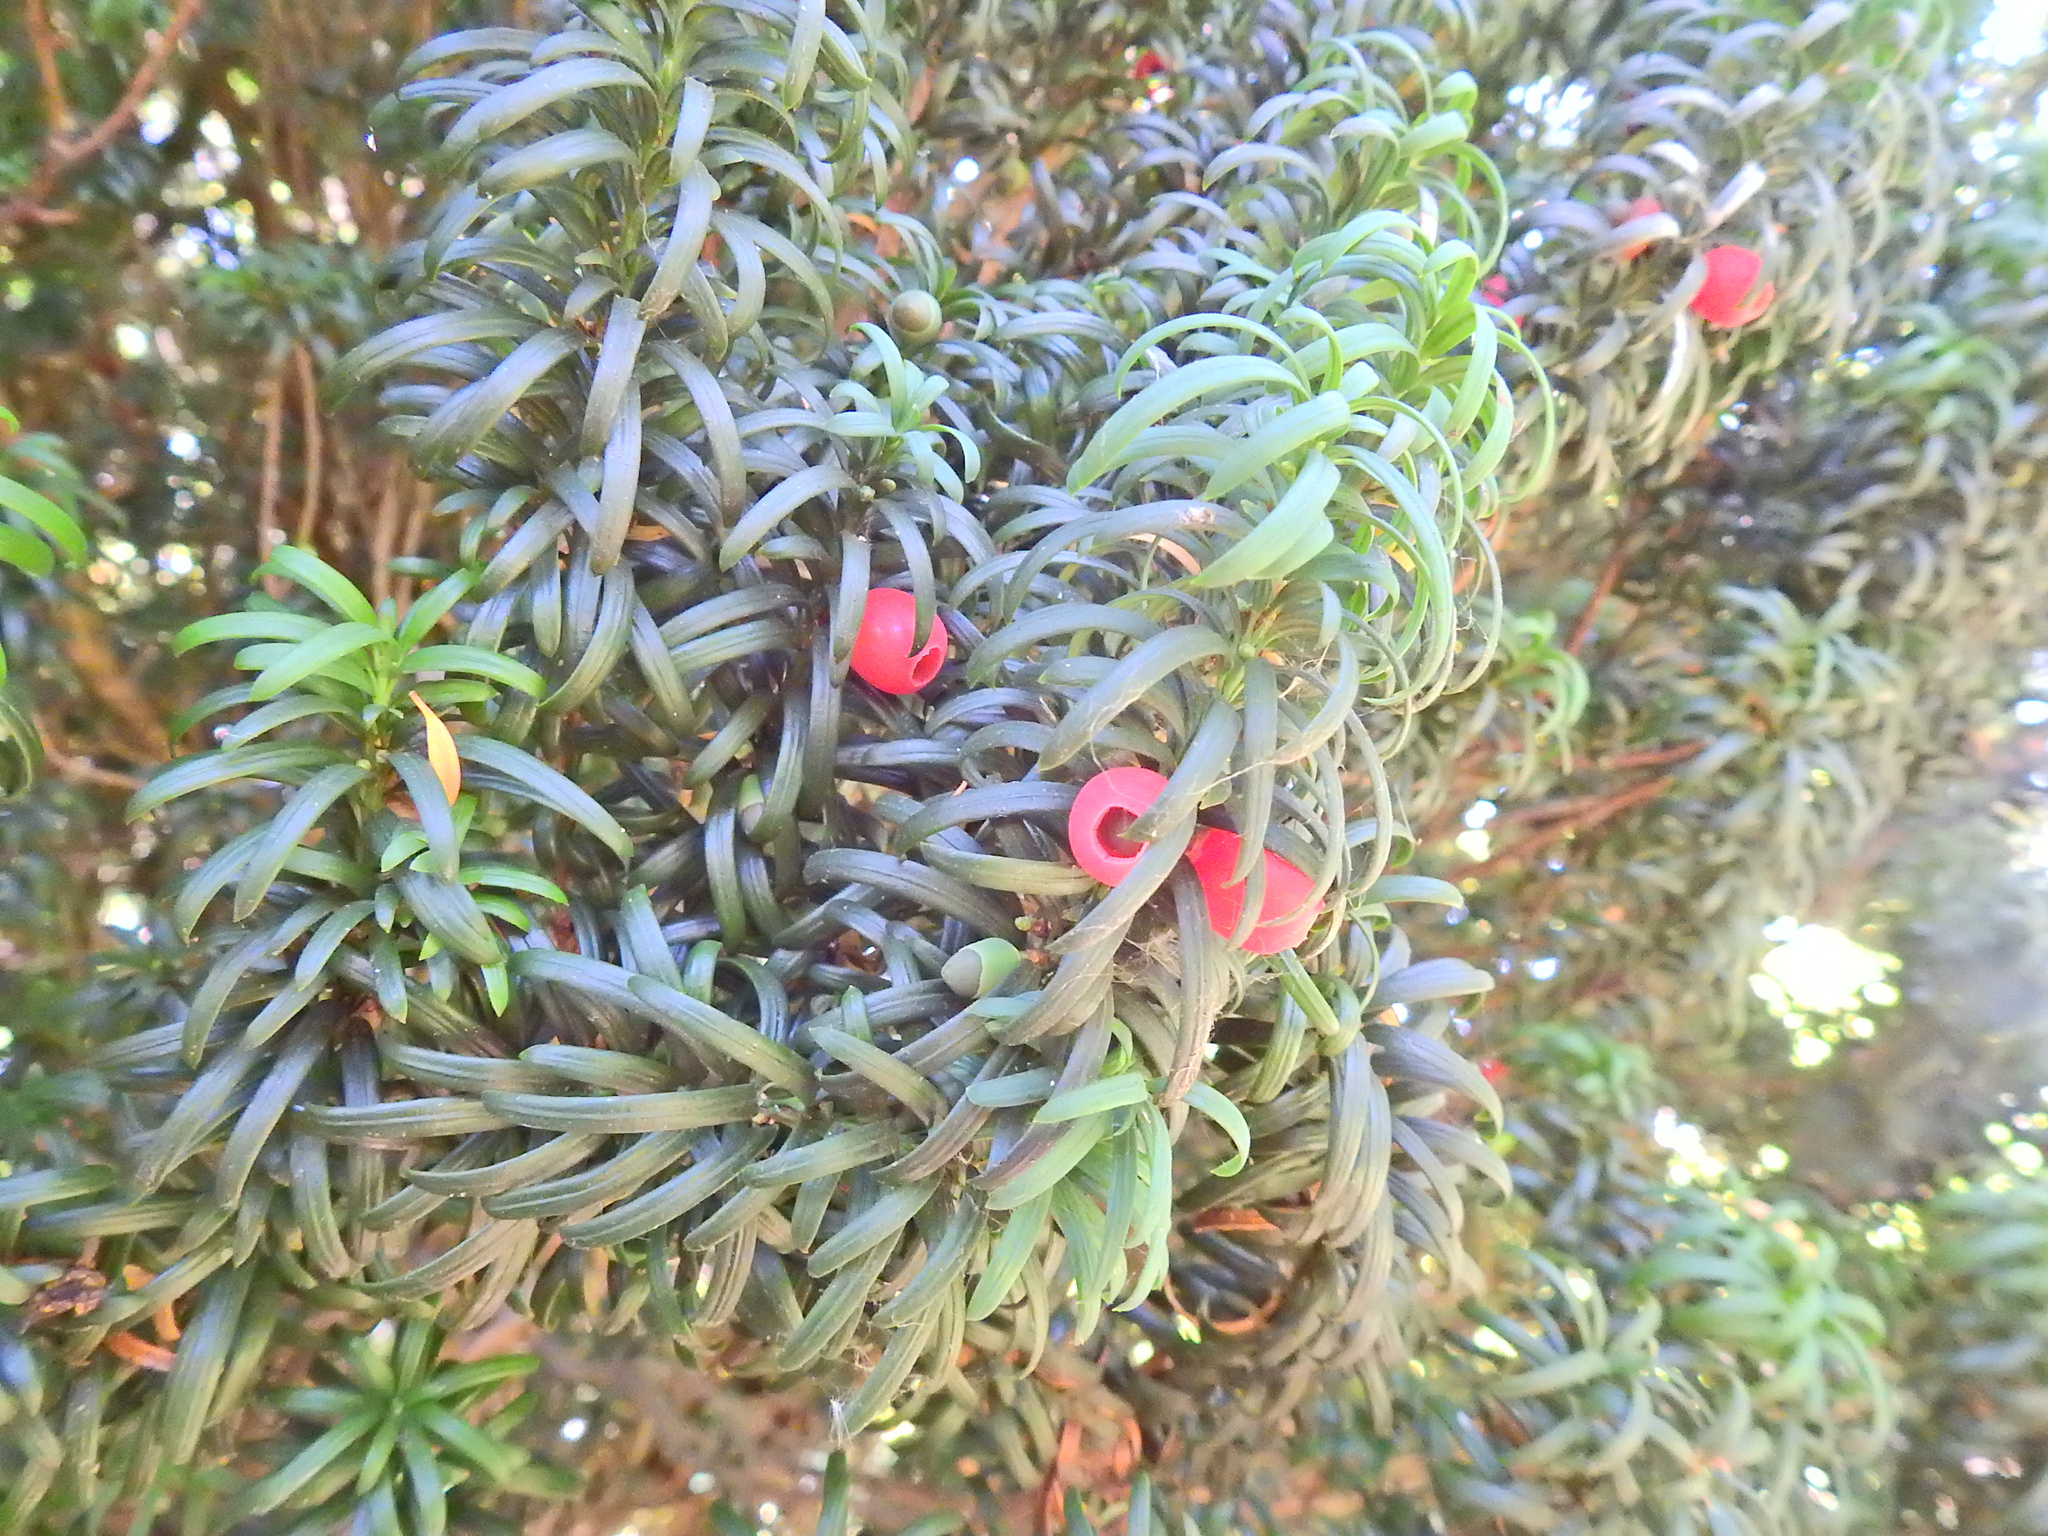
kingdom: Plantae
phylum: Tracheophyta
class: Pinopsida
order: Pinales
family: Taxaceae
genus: Taxus
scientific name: Taxus baccata
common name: Yew
